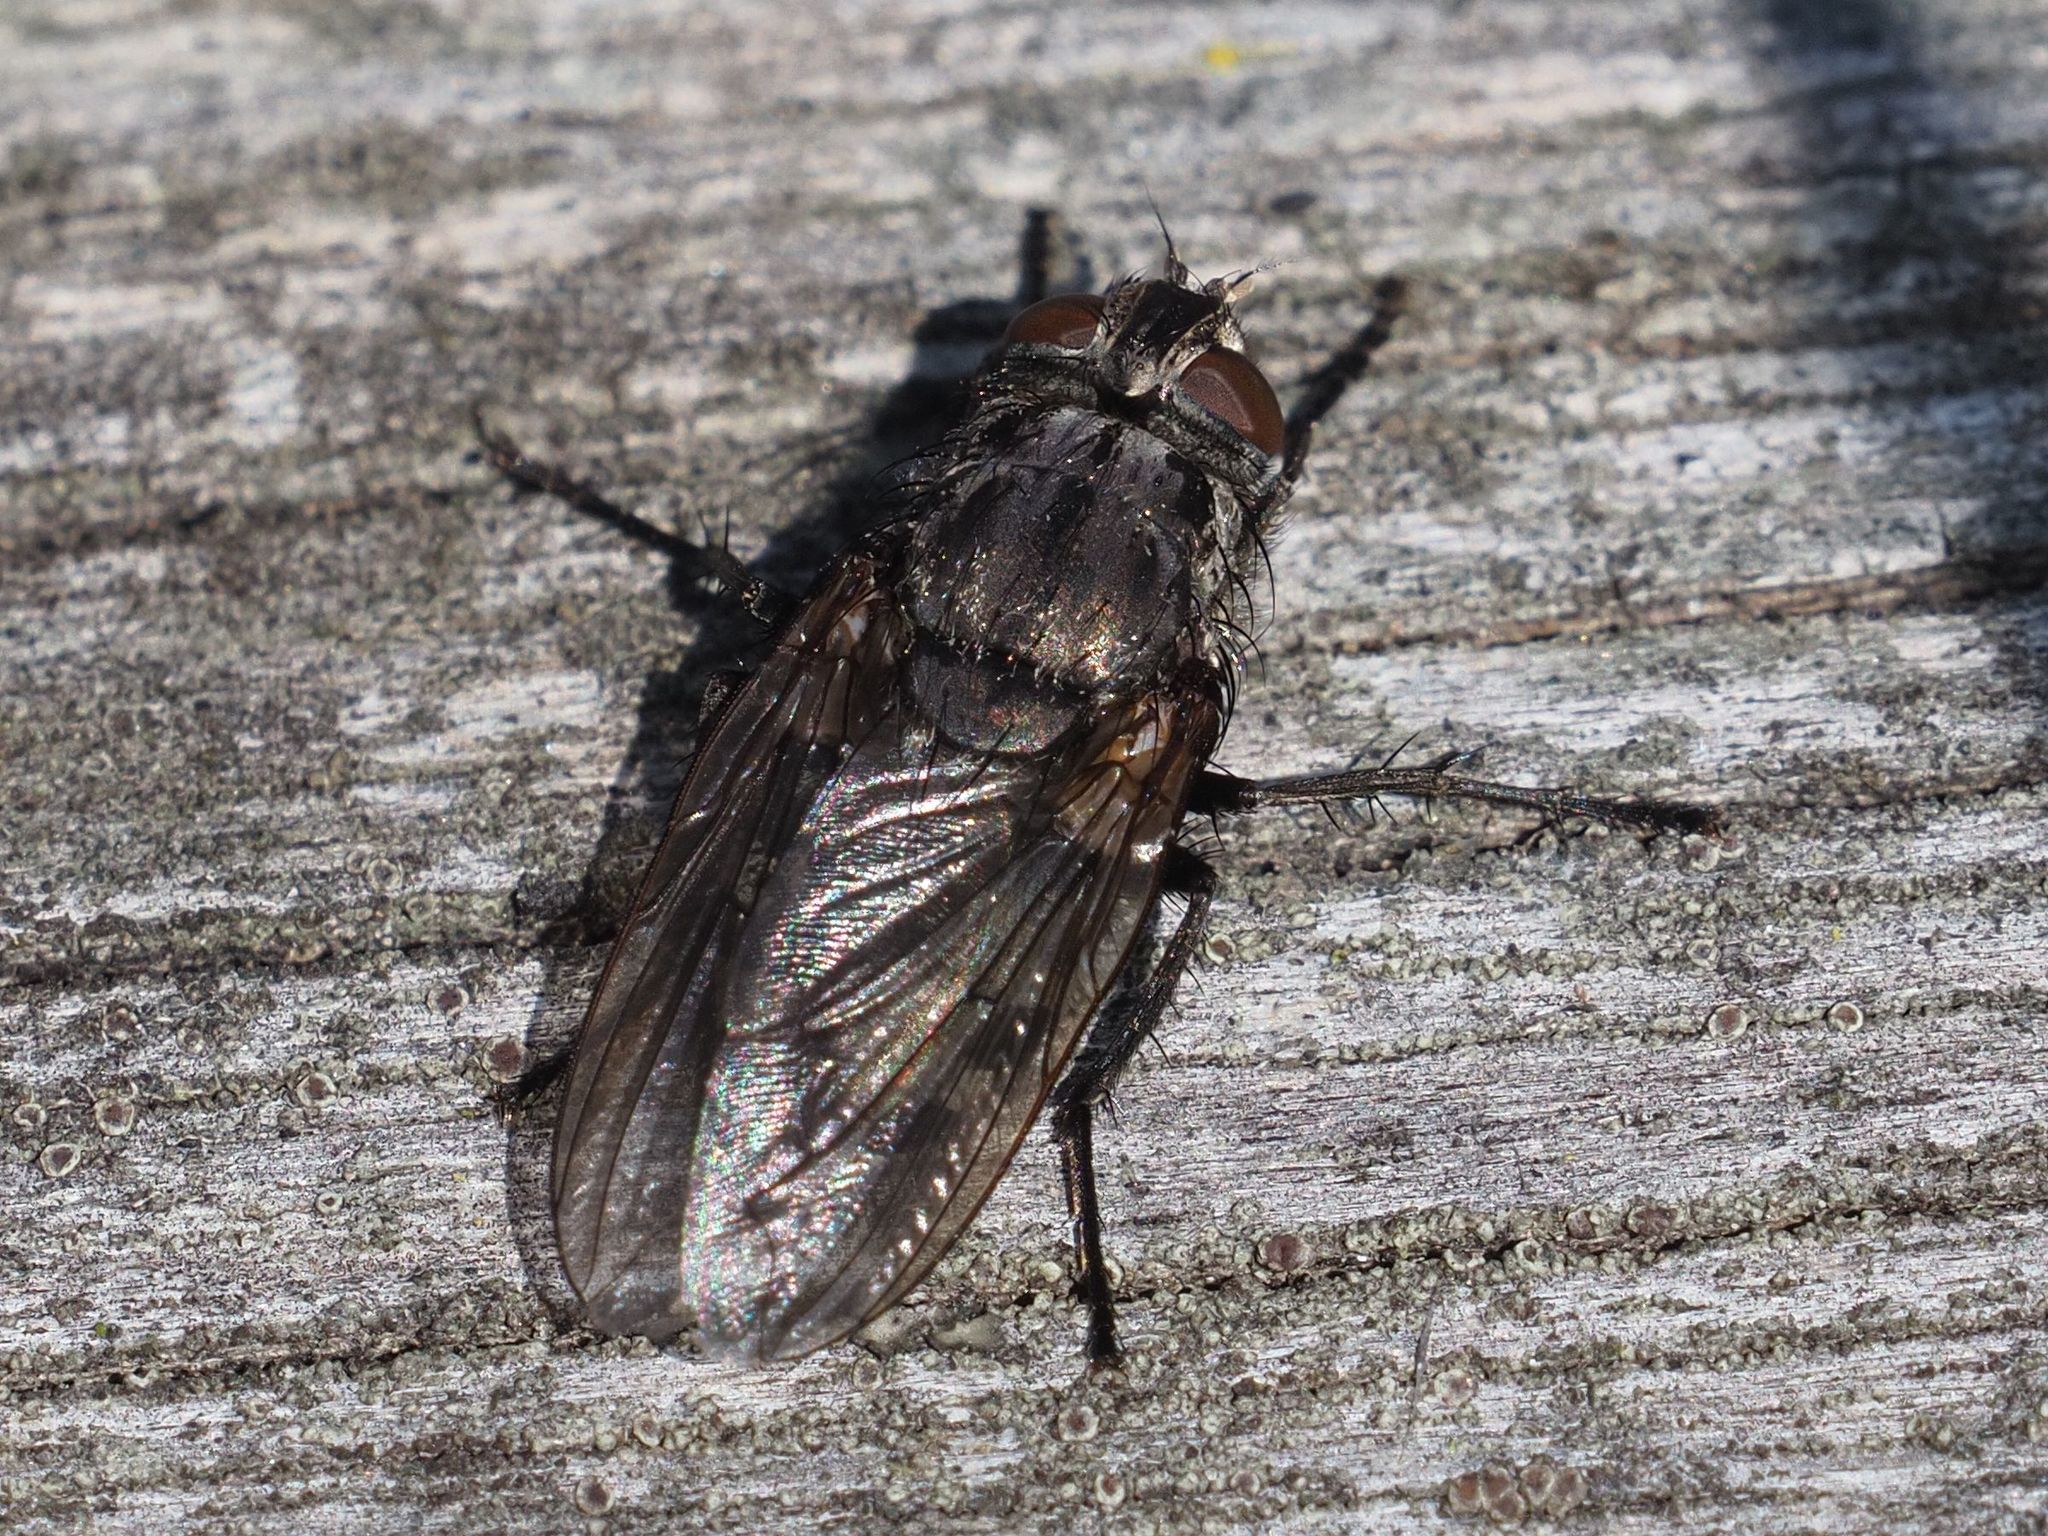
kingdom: Animalia
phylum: Arthropoda
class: Insecta
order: Diptera
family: Polleniidae
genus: Pollenia
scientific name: Pollenia vagabunda
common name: Vagabund cluster fly
